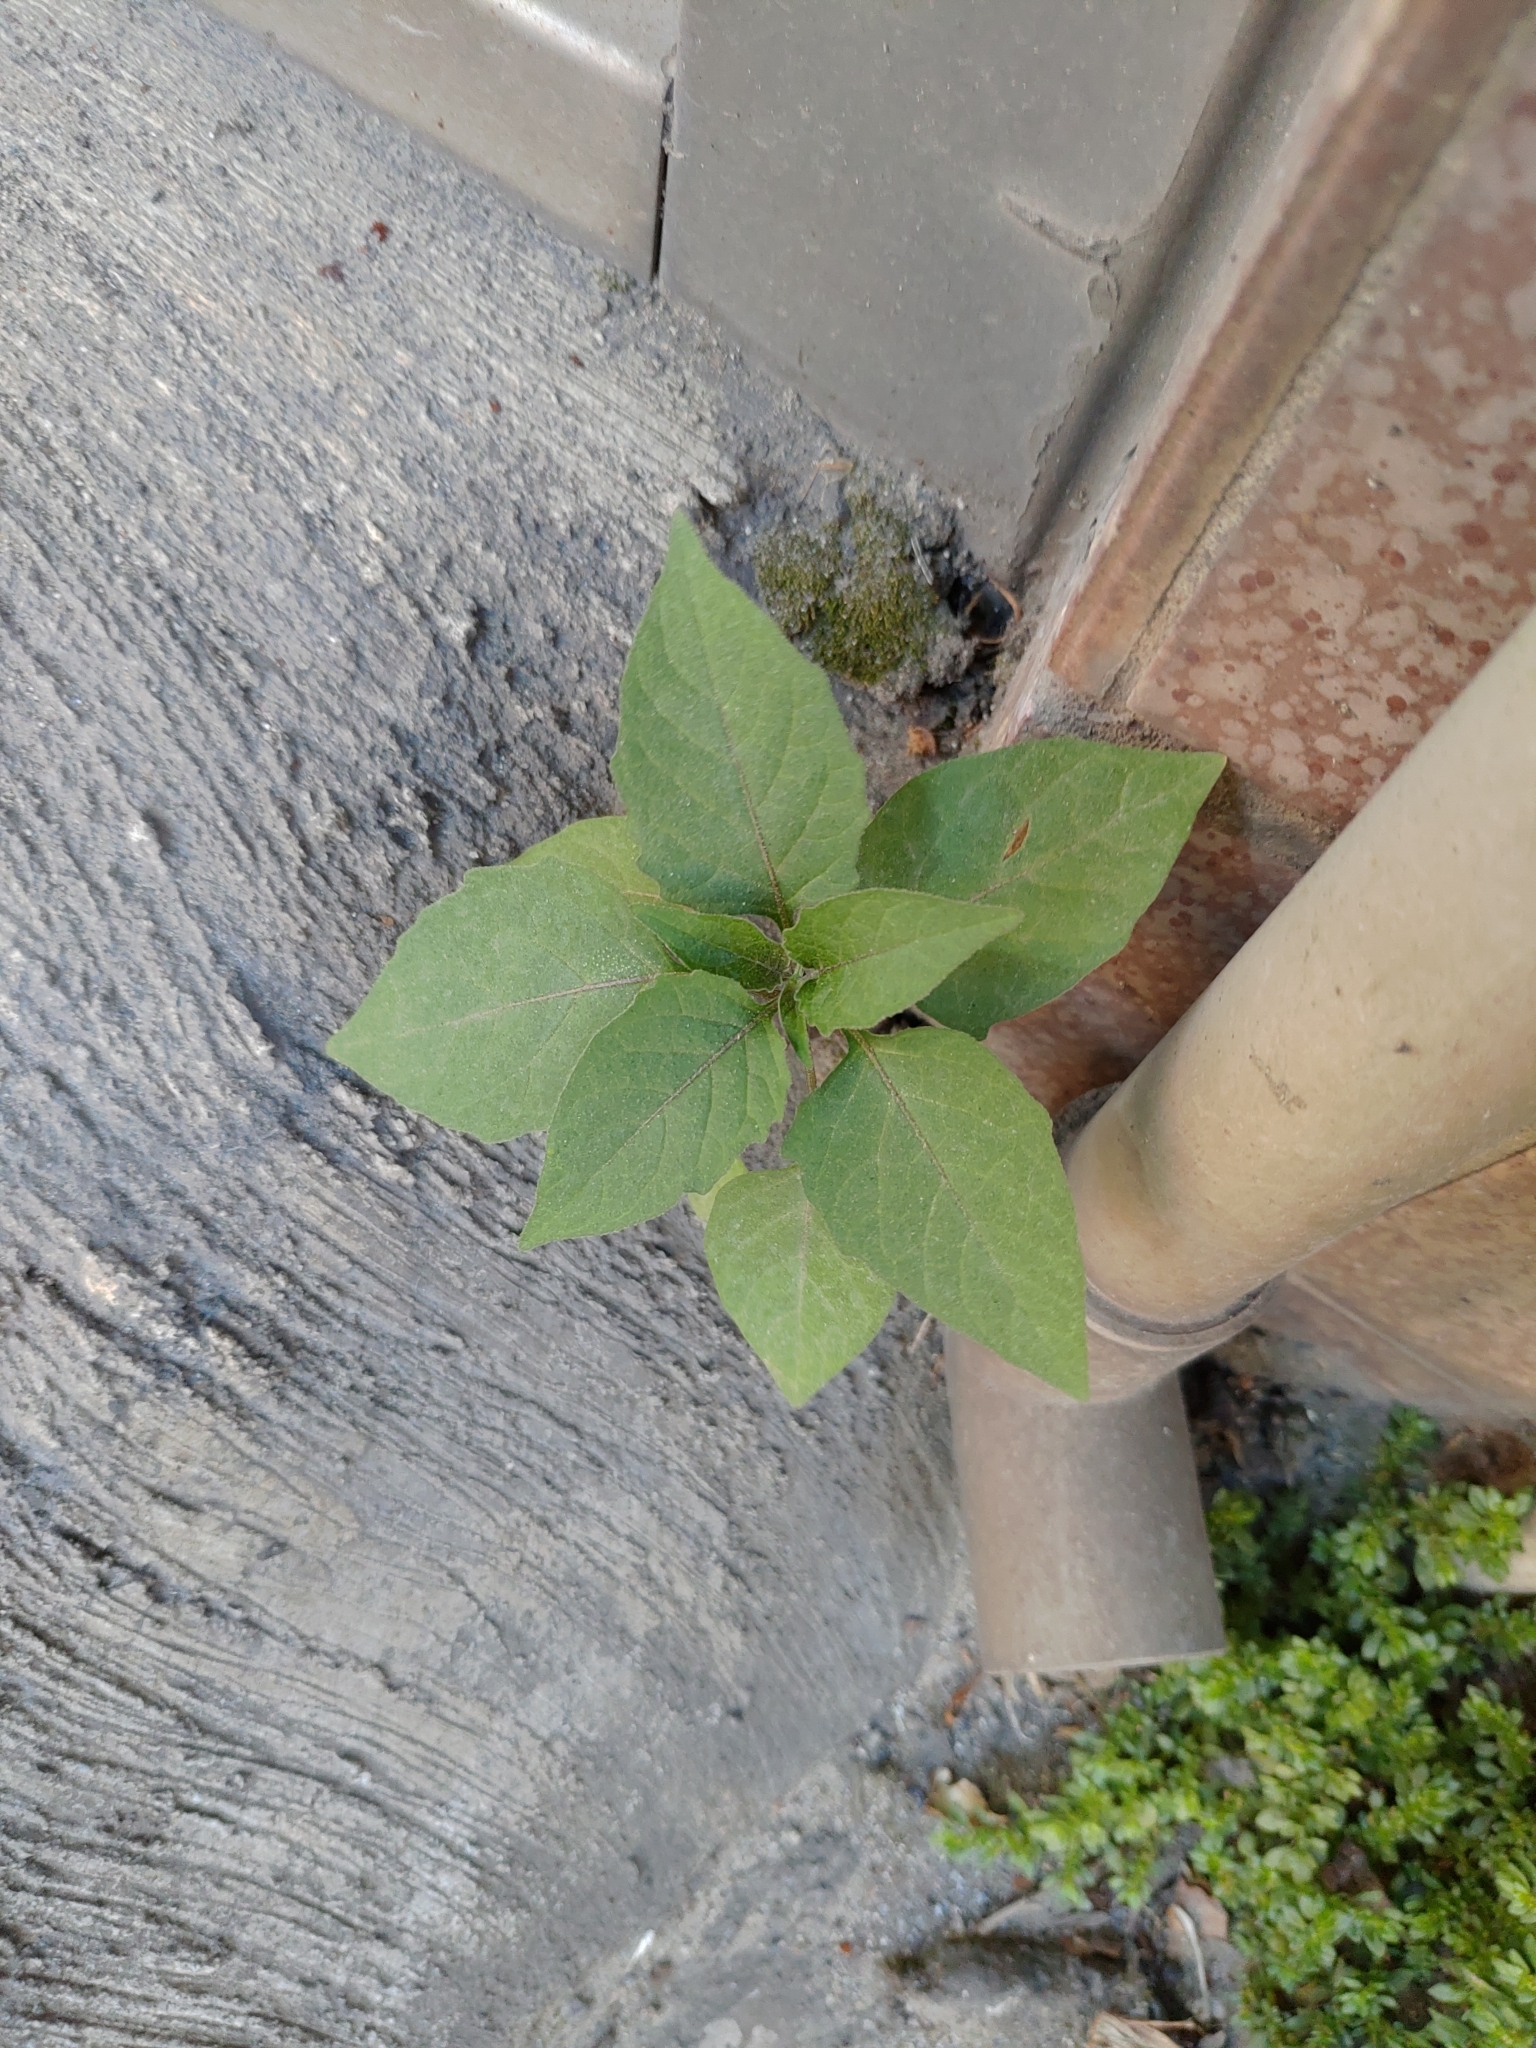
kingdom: Plantae
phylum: Tracheophyta
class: Magnoliopsida
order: Solanales
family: Solanaceae
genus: Solanum
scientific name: Solanum
